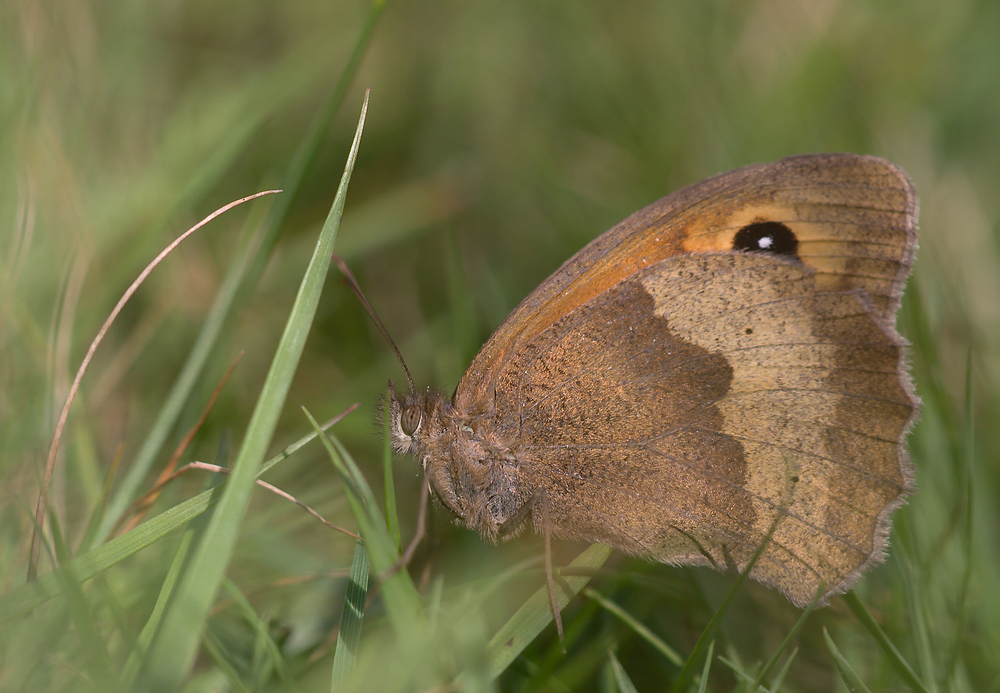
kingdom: Animalia
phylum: Arthropoda
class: Insecta
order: Lepidoptera
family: Nymphalidae
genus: Maniola
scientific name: Maniola jurtina
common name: Meadow brown
